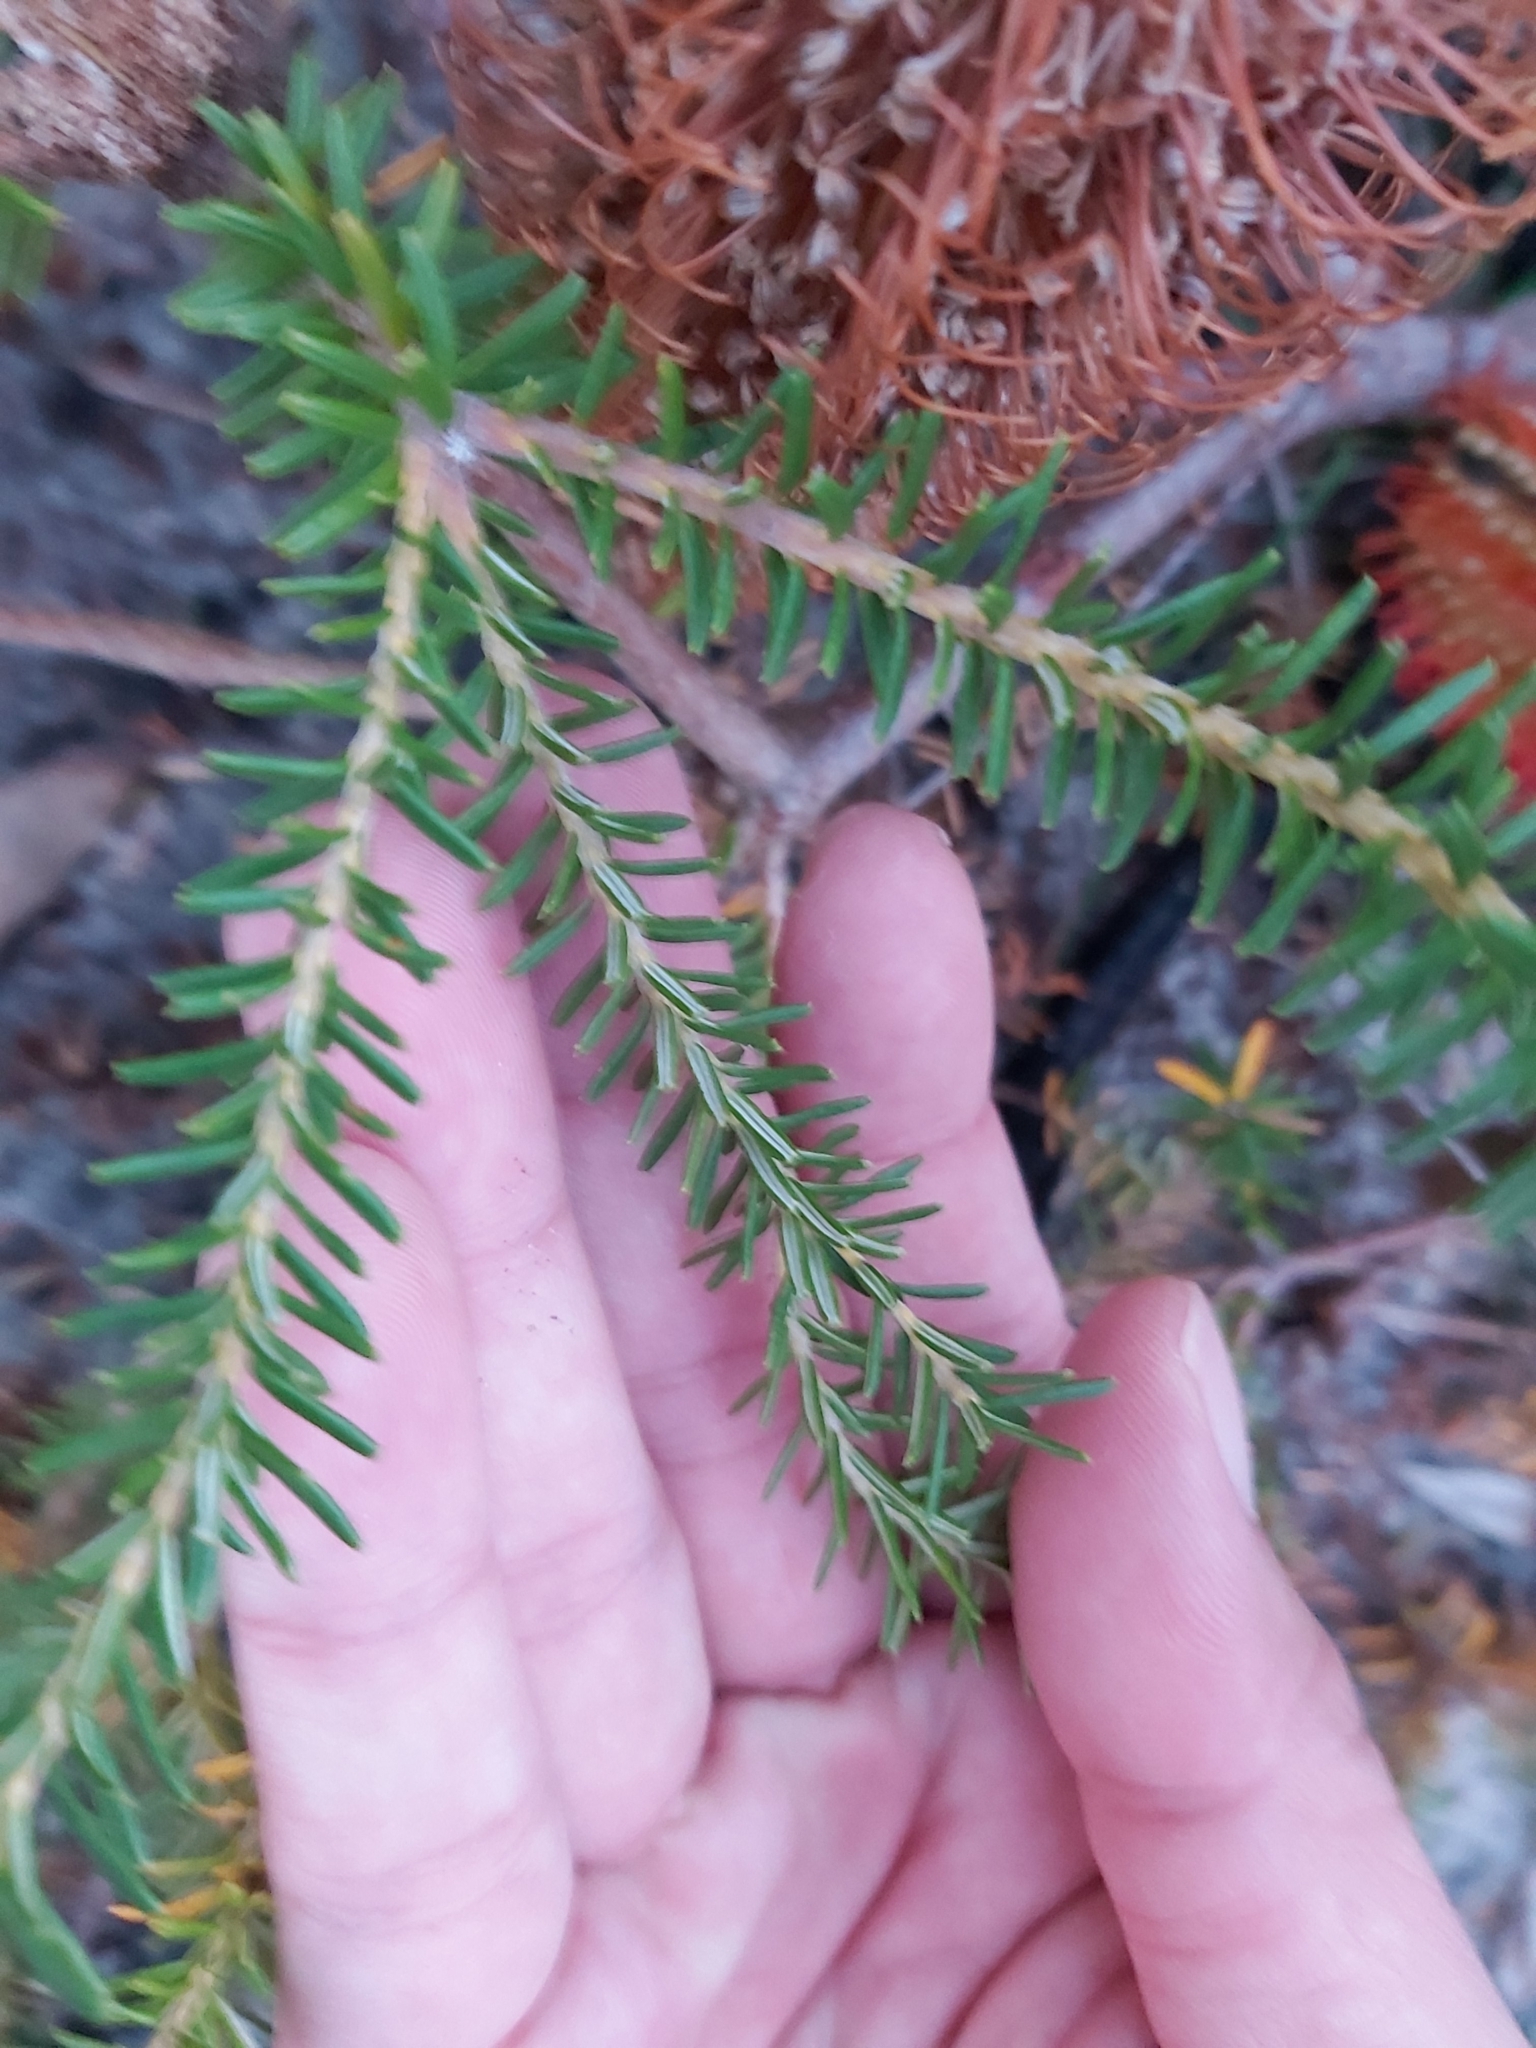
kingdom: Plantae
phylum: Tracheophyta
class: Magnoliopsida
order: Proteales
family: Proteaceae
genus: Banksia
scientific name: Banksia ericifolia
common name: Heath-leaf banksia
